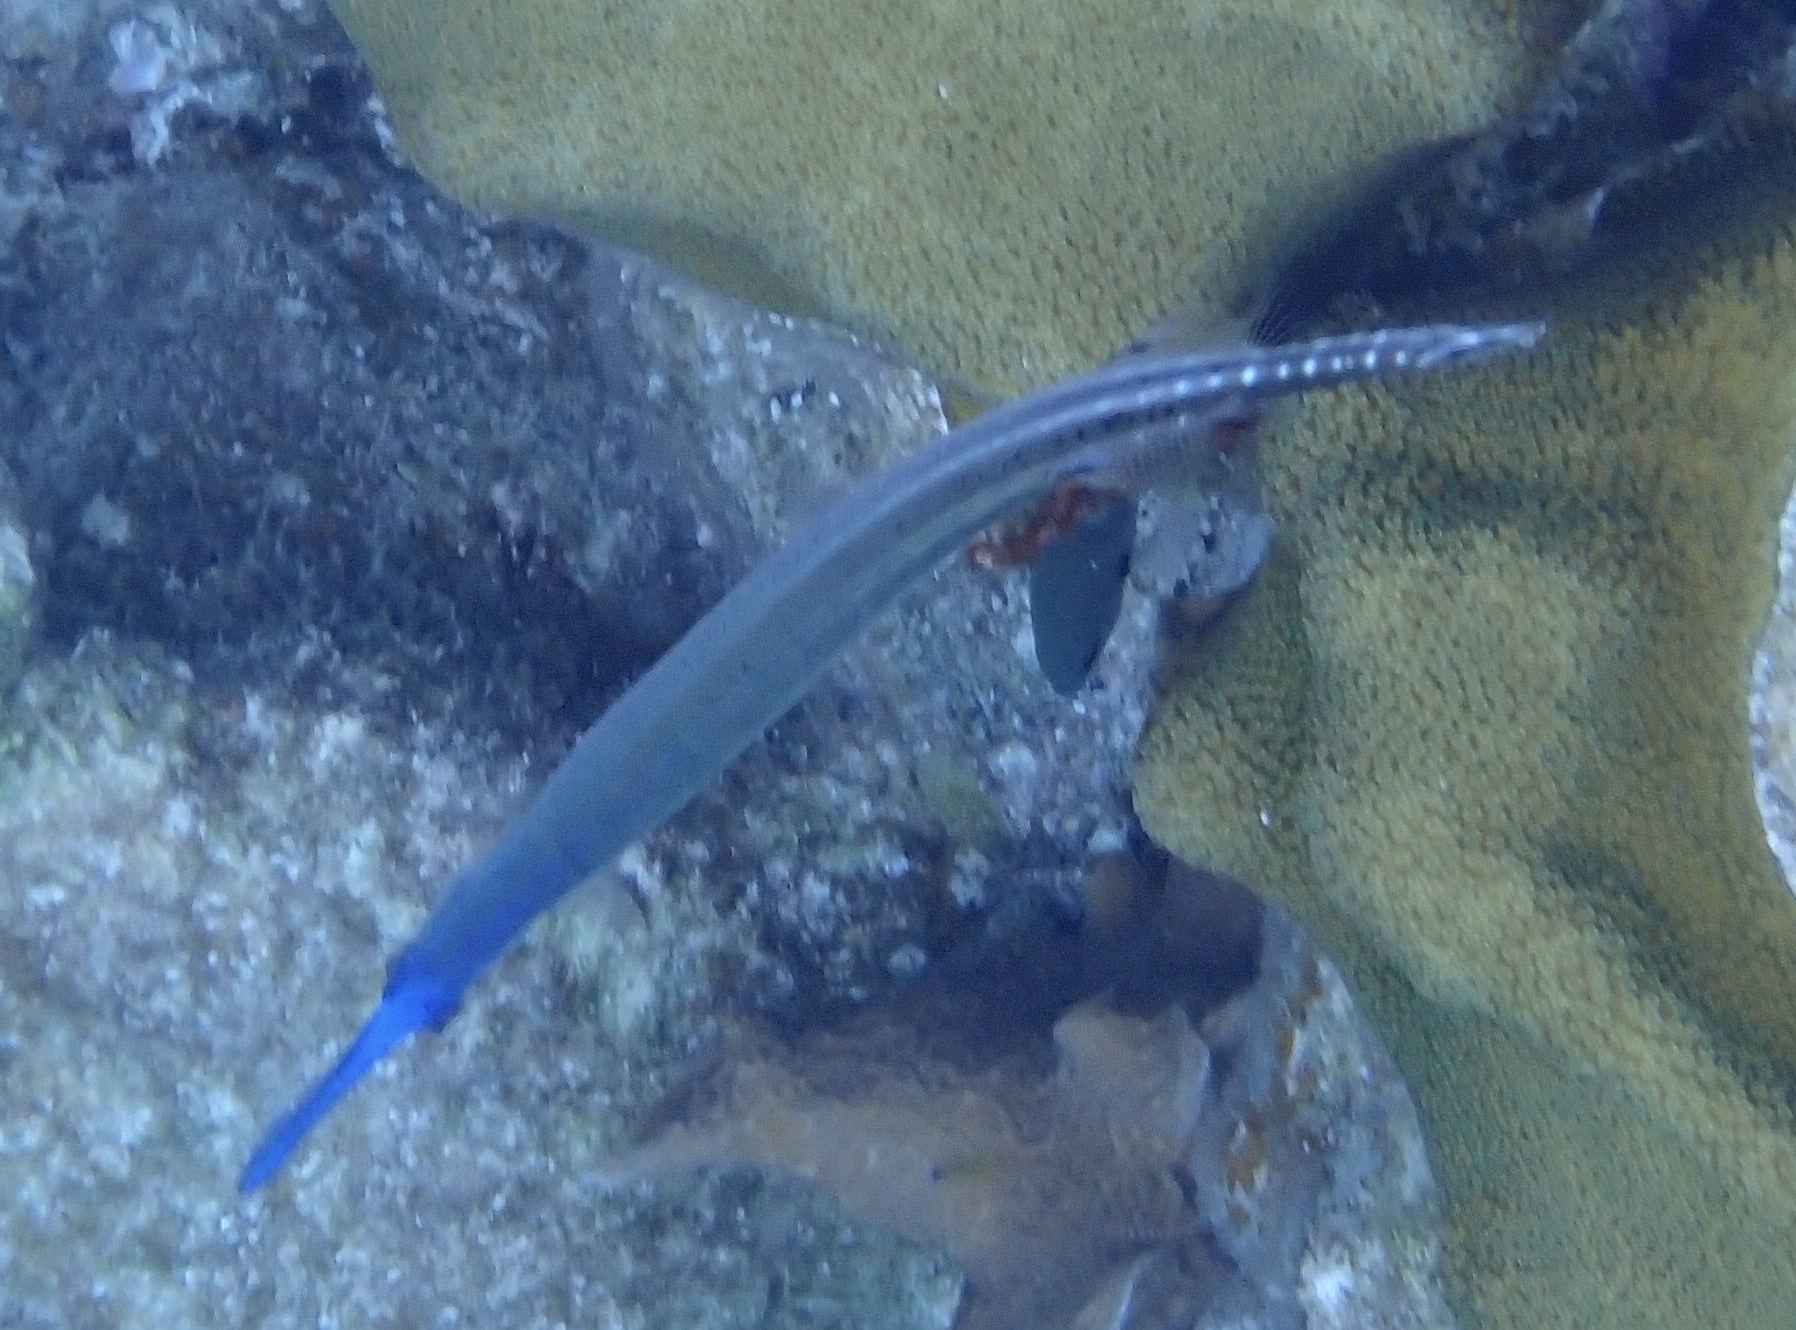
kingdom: Animalia
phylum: Chordata
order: Syngnathiformes
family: Aulostomidae
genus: Aulostomus
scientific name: Aulostomus maculatus
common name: West atlantic trumpetfish
